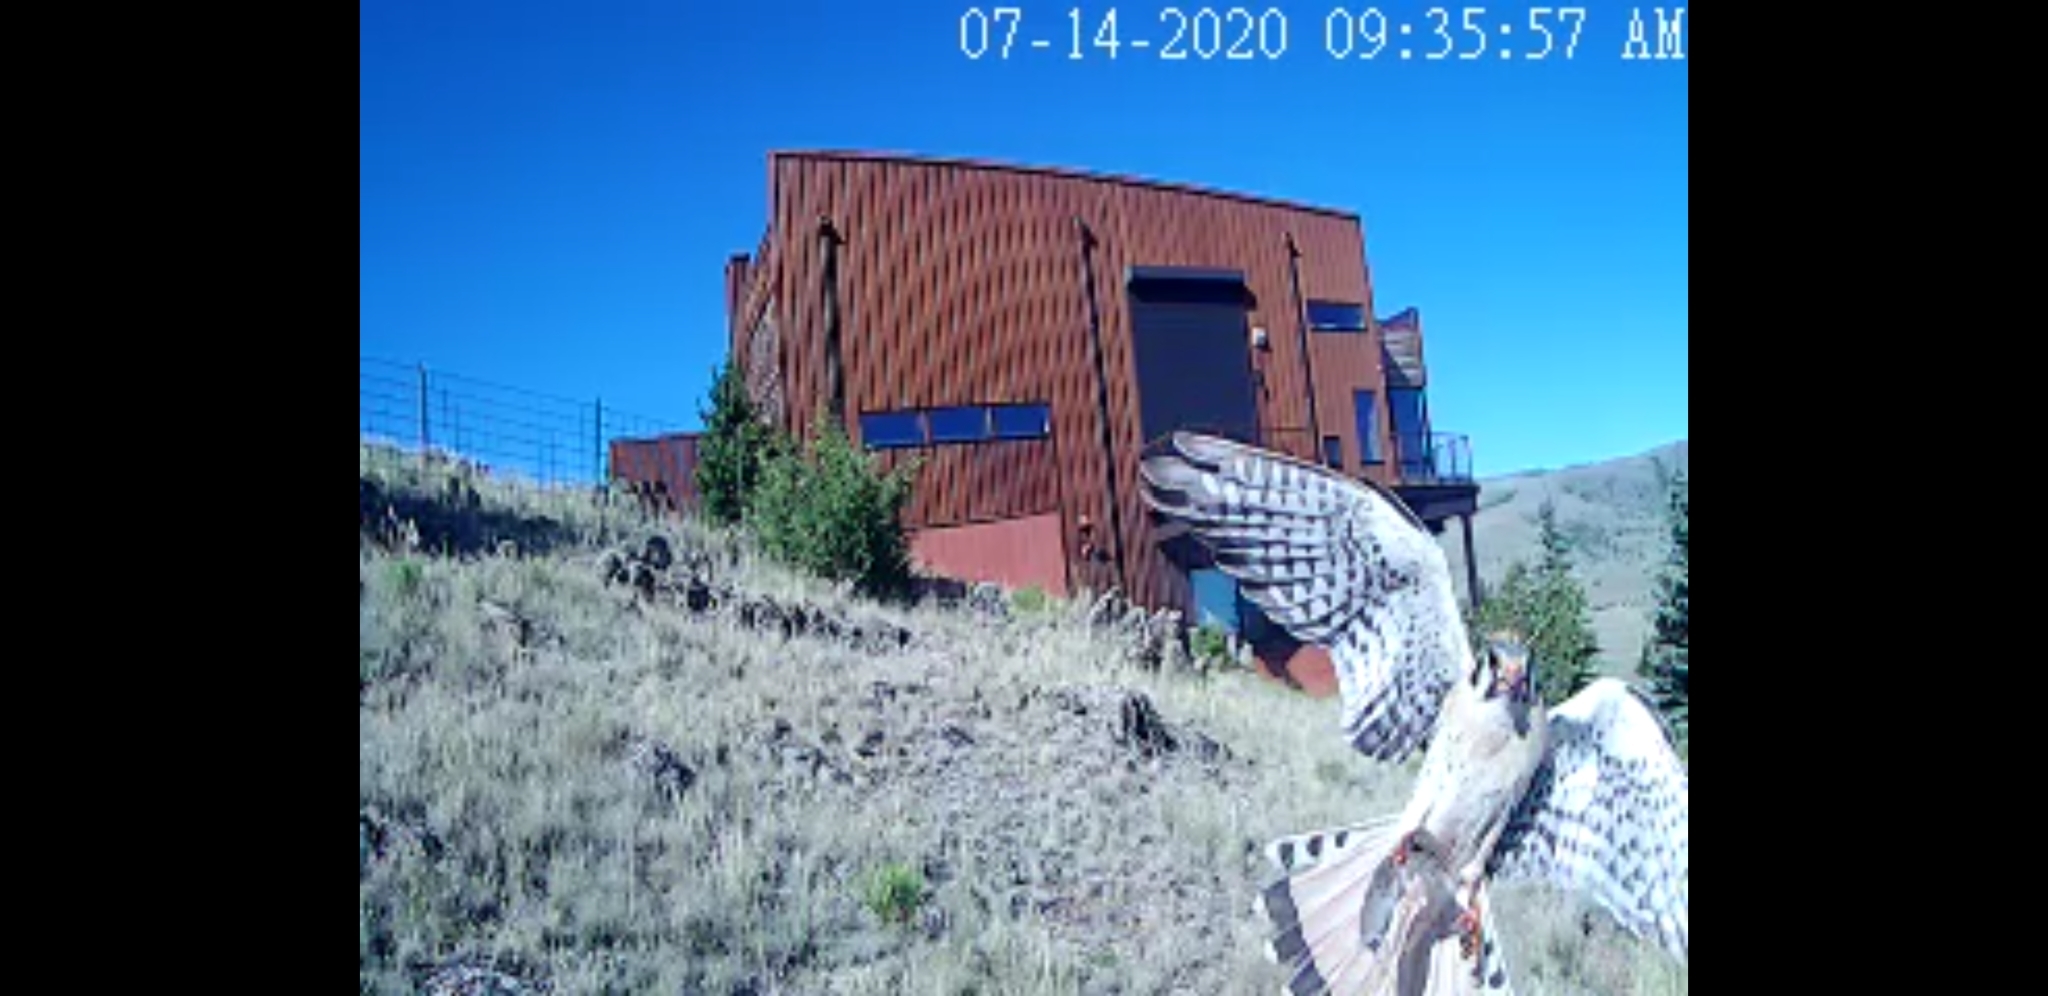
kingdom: Animalia
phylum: Chordata
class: Aves
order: Falconiformes
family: Falconidae
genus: Falco
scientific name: Falco sparverius
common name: American kestrel
